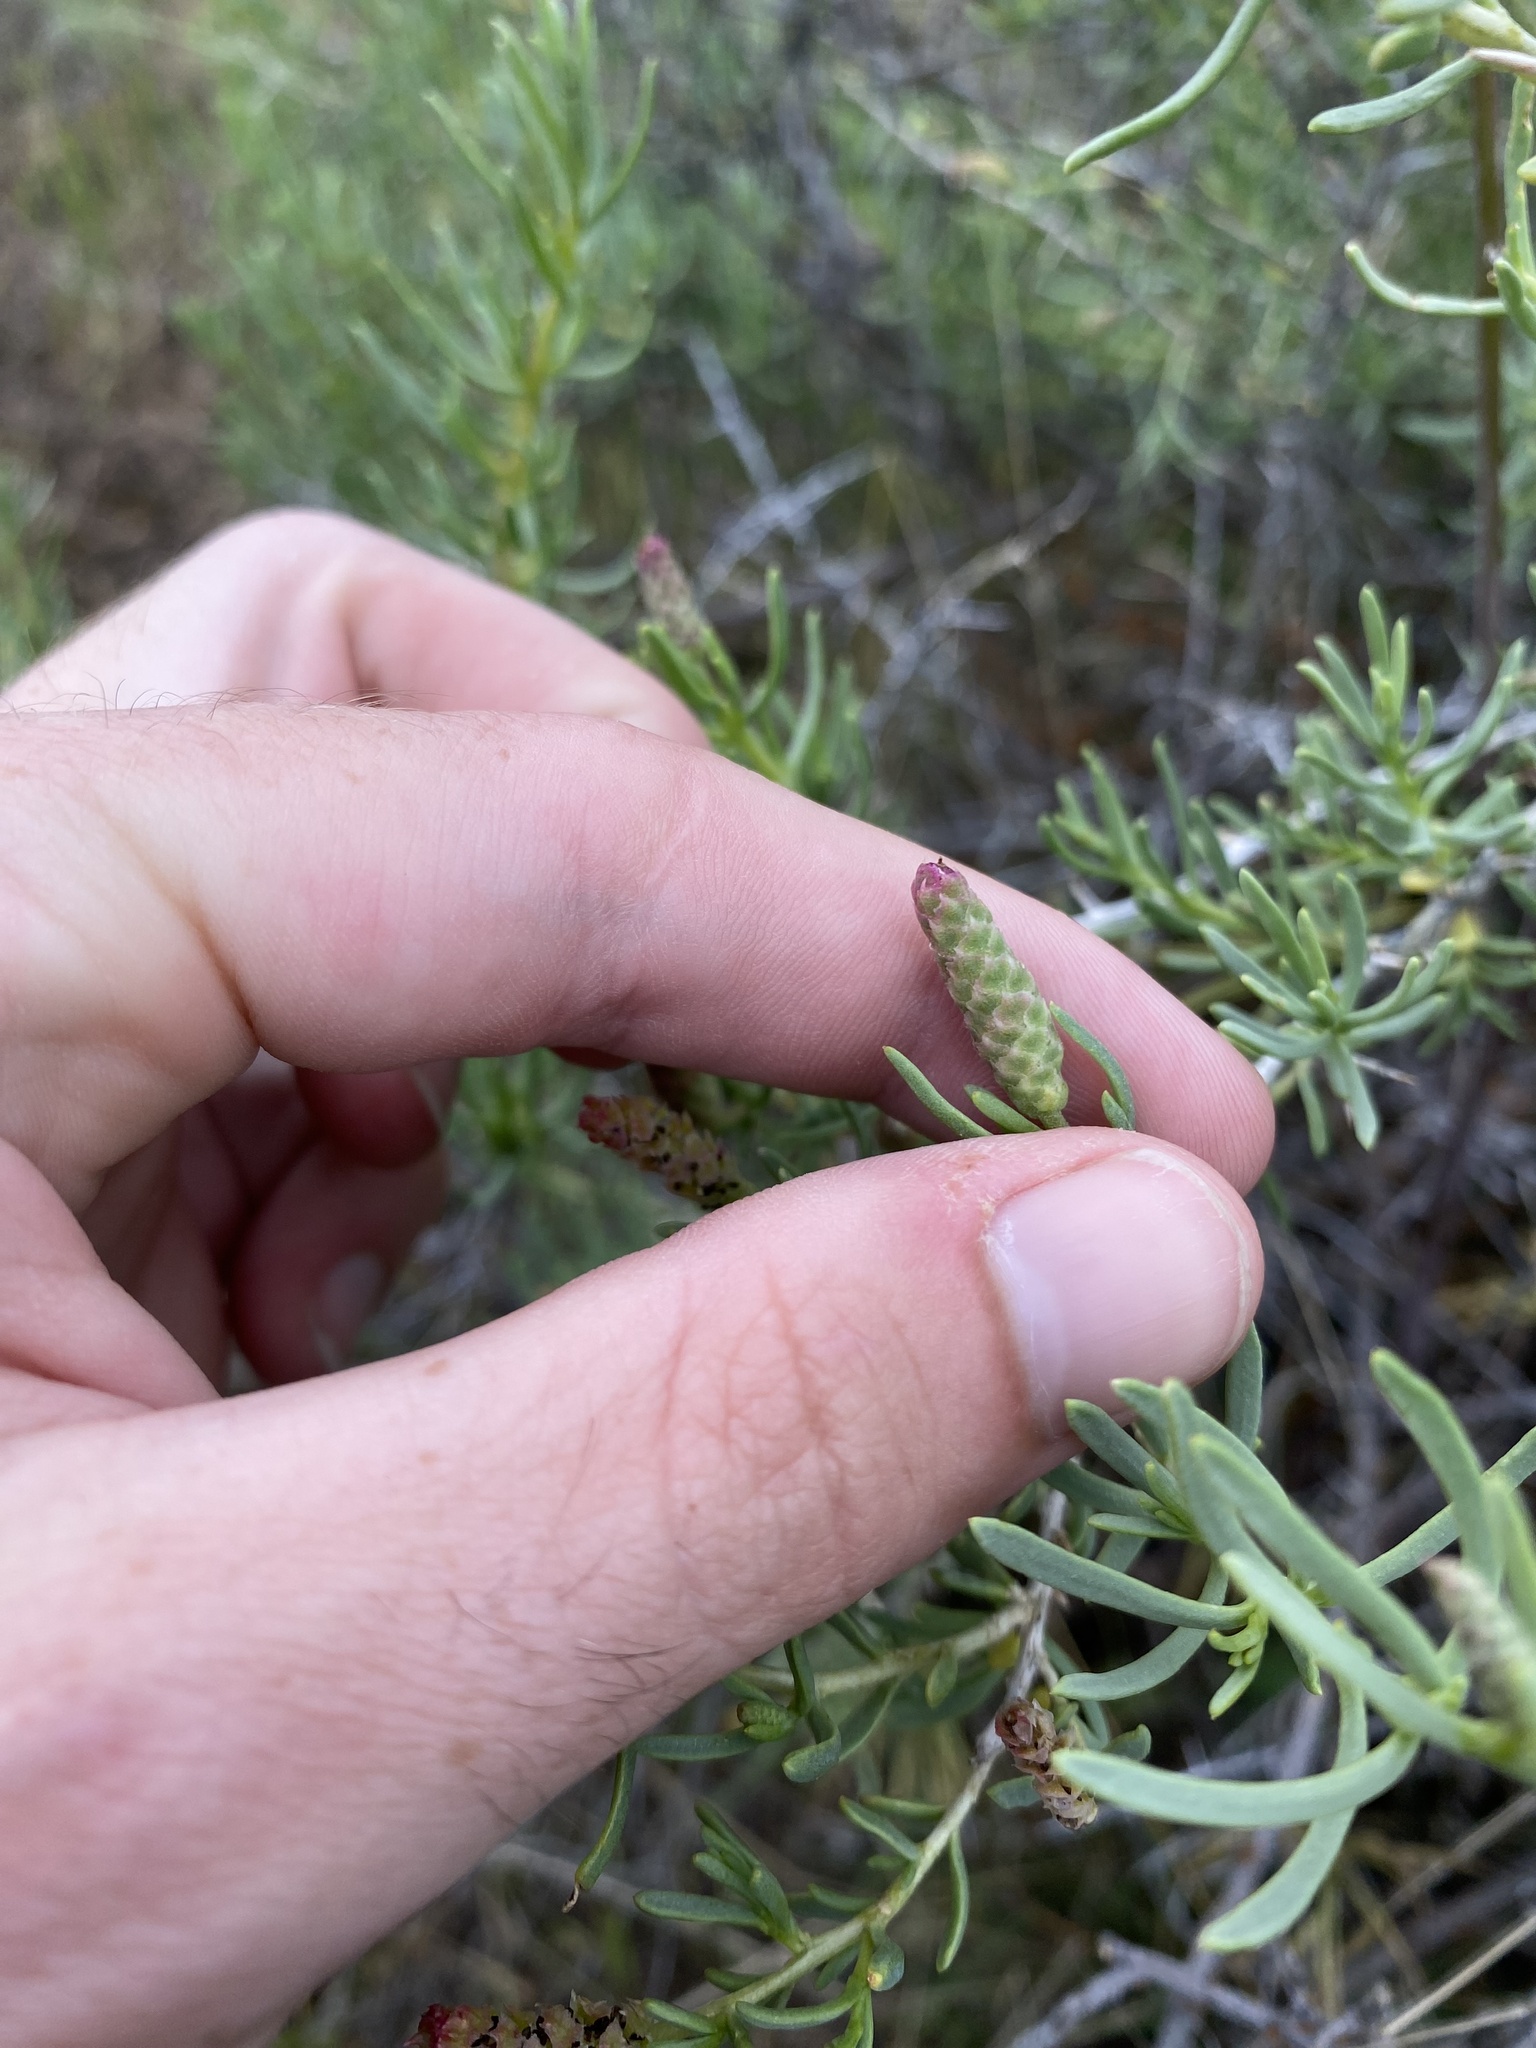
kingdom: Plantae
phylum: Tracheophyta
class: Magnoliopsida
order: Caryophyllales
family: Sarcobataceae
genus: Sarcobatus
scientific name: Sarcobatus vermiculatus
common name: Greasewood
